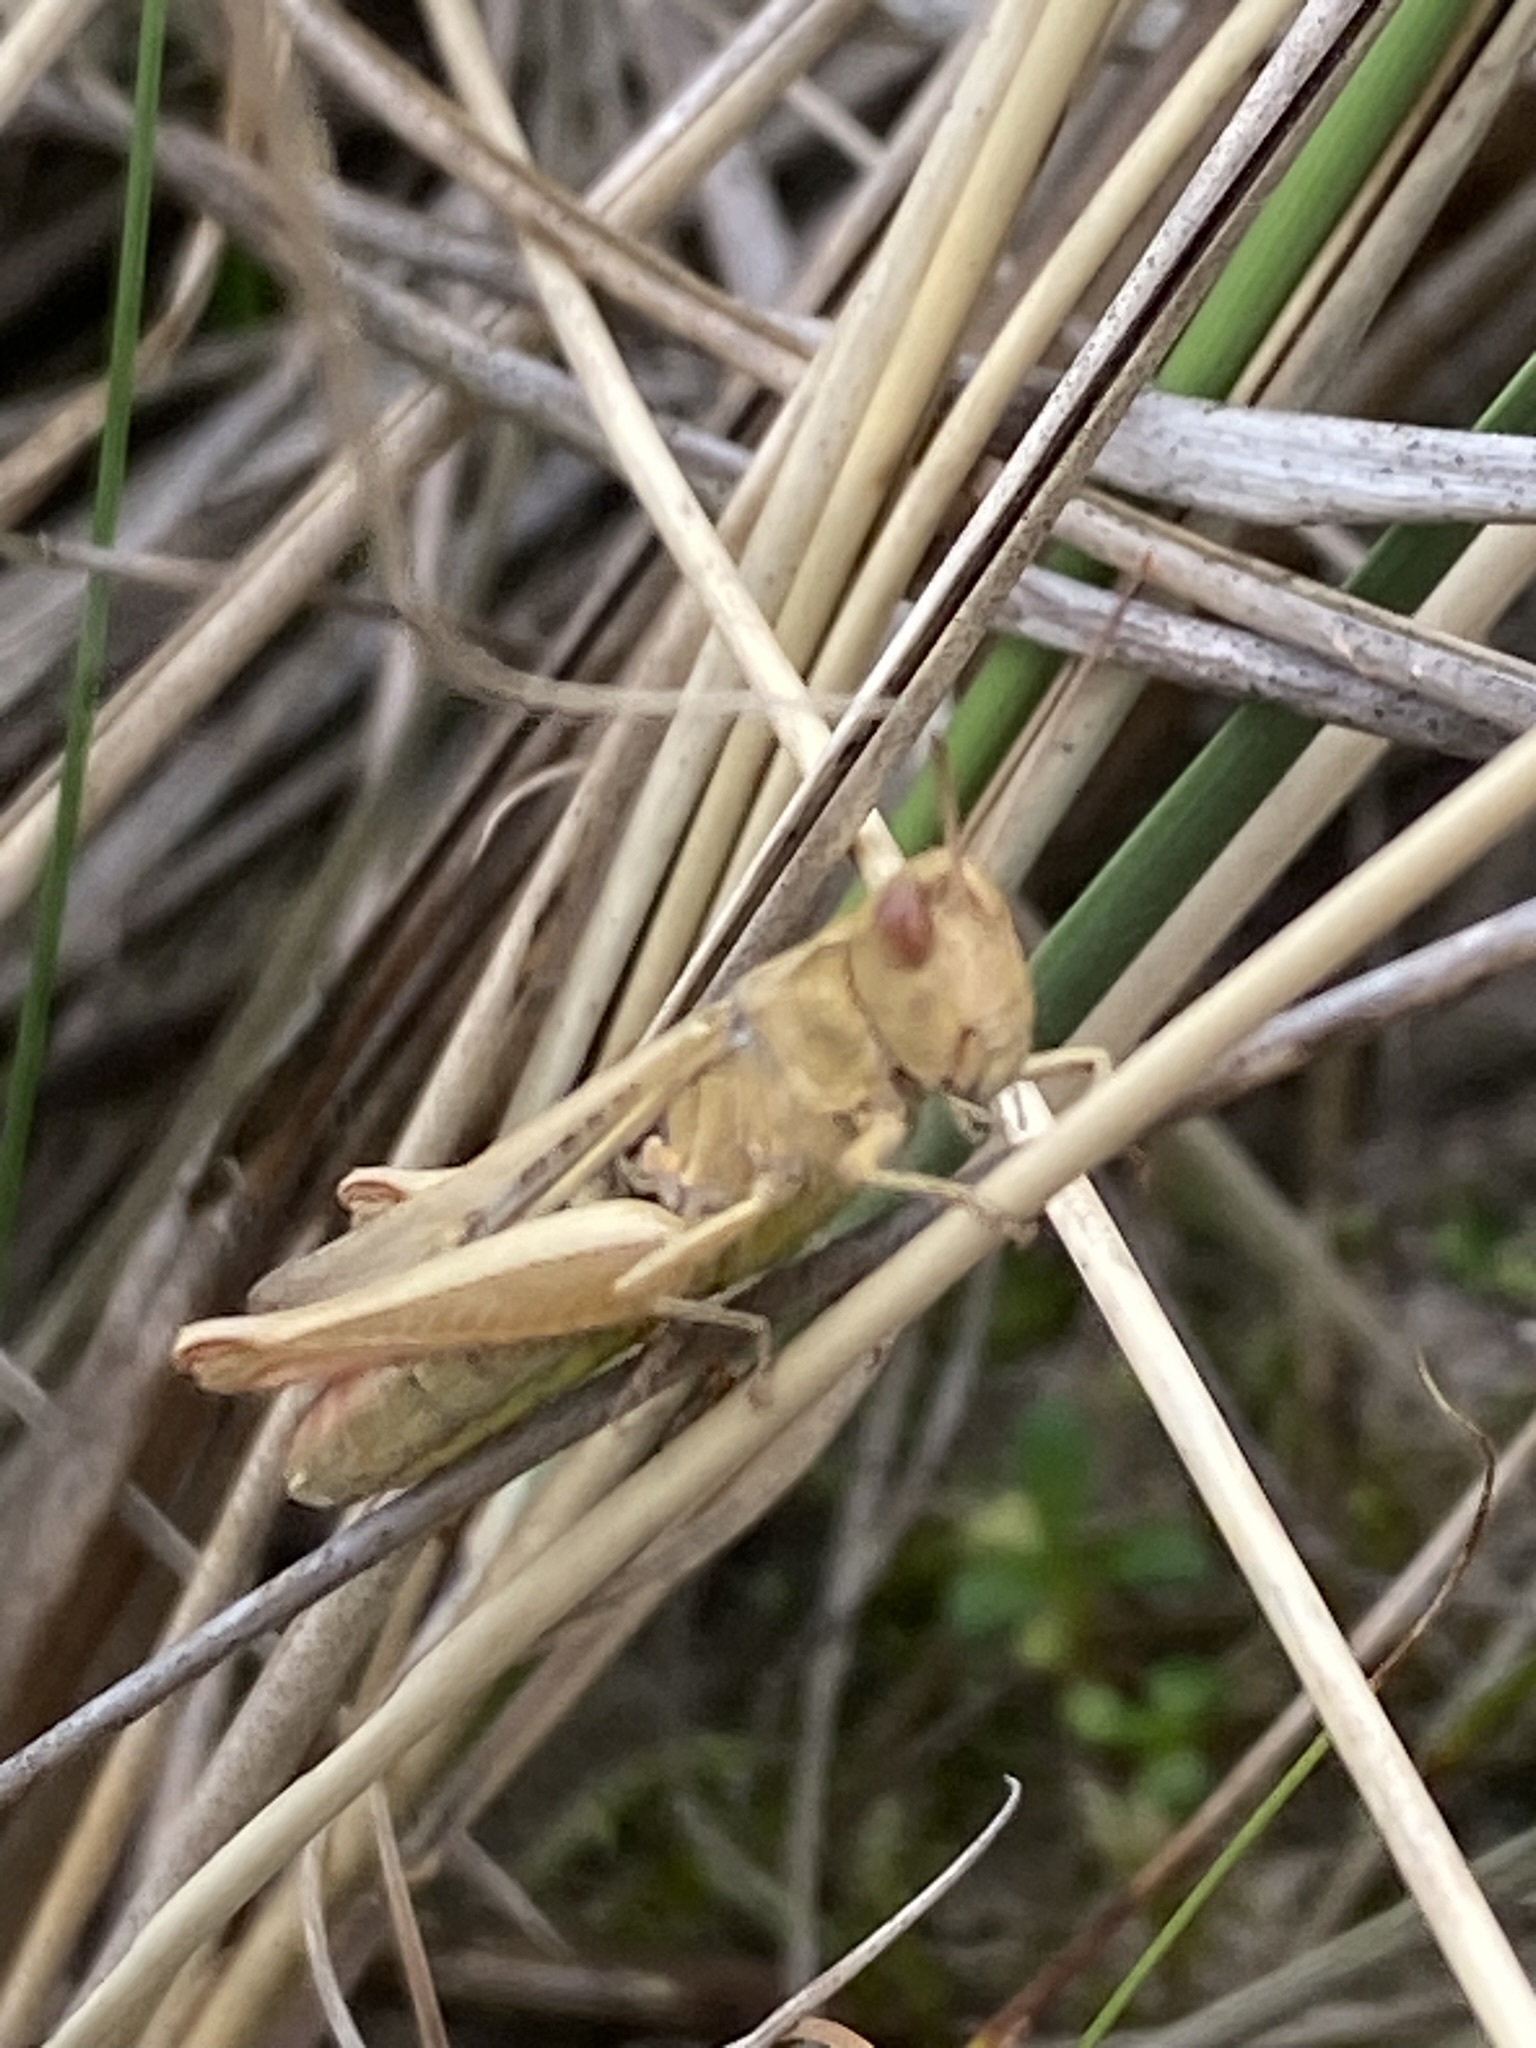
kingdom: Animalia
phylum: Arthropoda
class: Insecta
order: Orthoptera
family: Acrididae
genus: Chorthippus
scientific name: Chorthippus brunneus
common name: Field grasshopper
